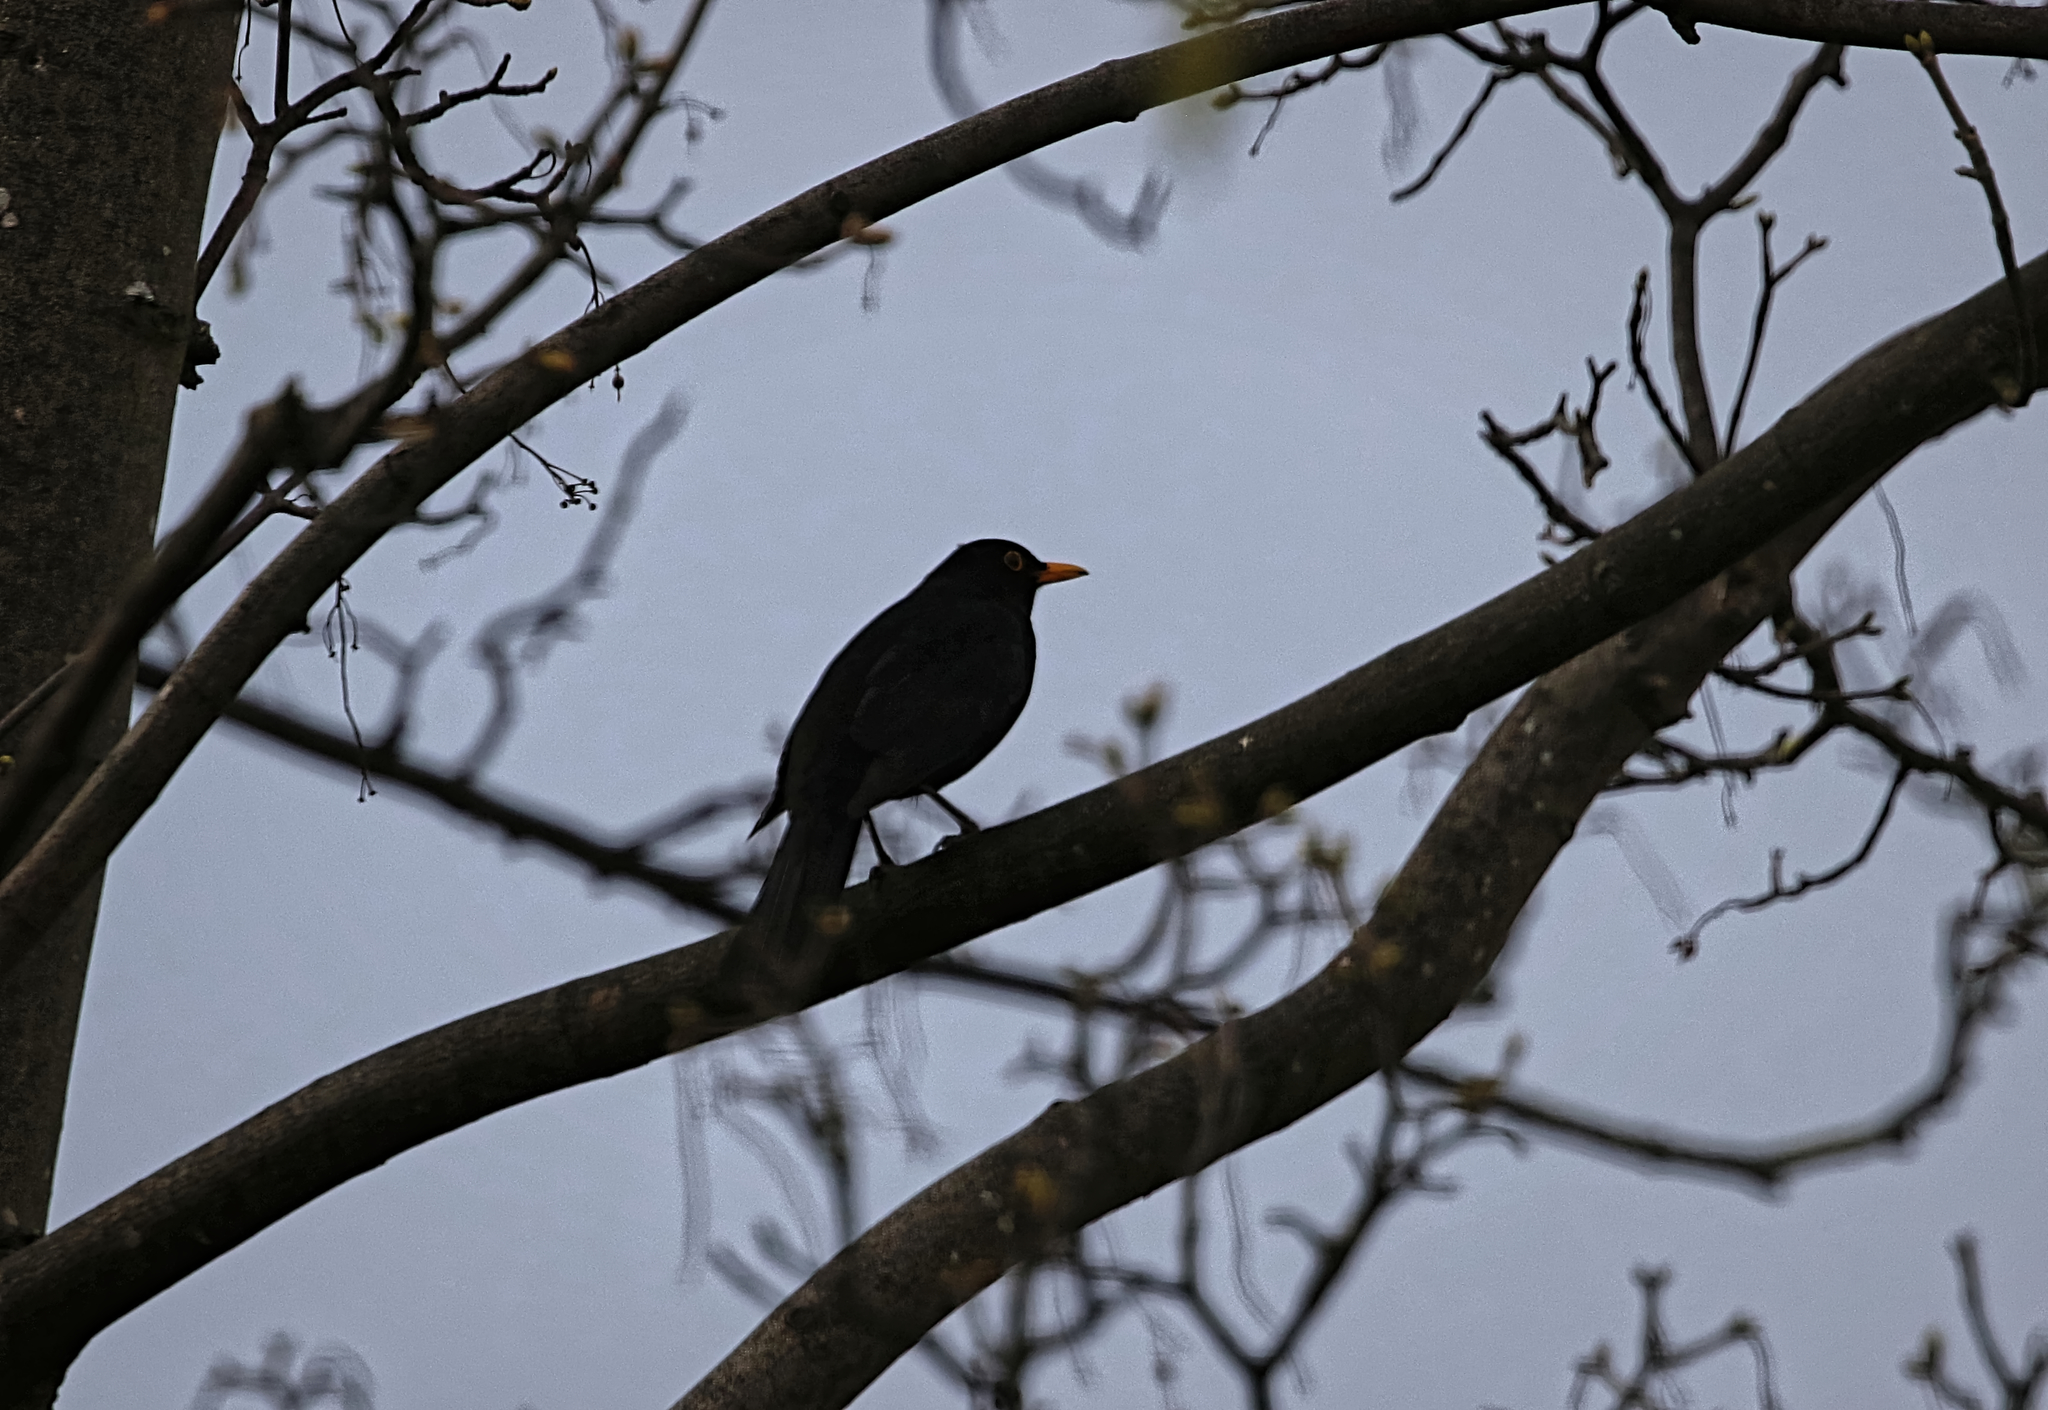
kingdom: Animalia
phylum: Chordata
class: Aves
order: Passeriformes
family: Turdidae
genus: Turdus
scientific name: Turdus merula
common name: Common blackbird
